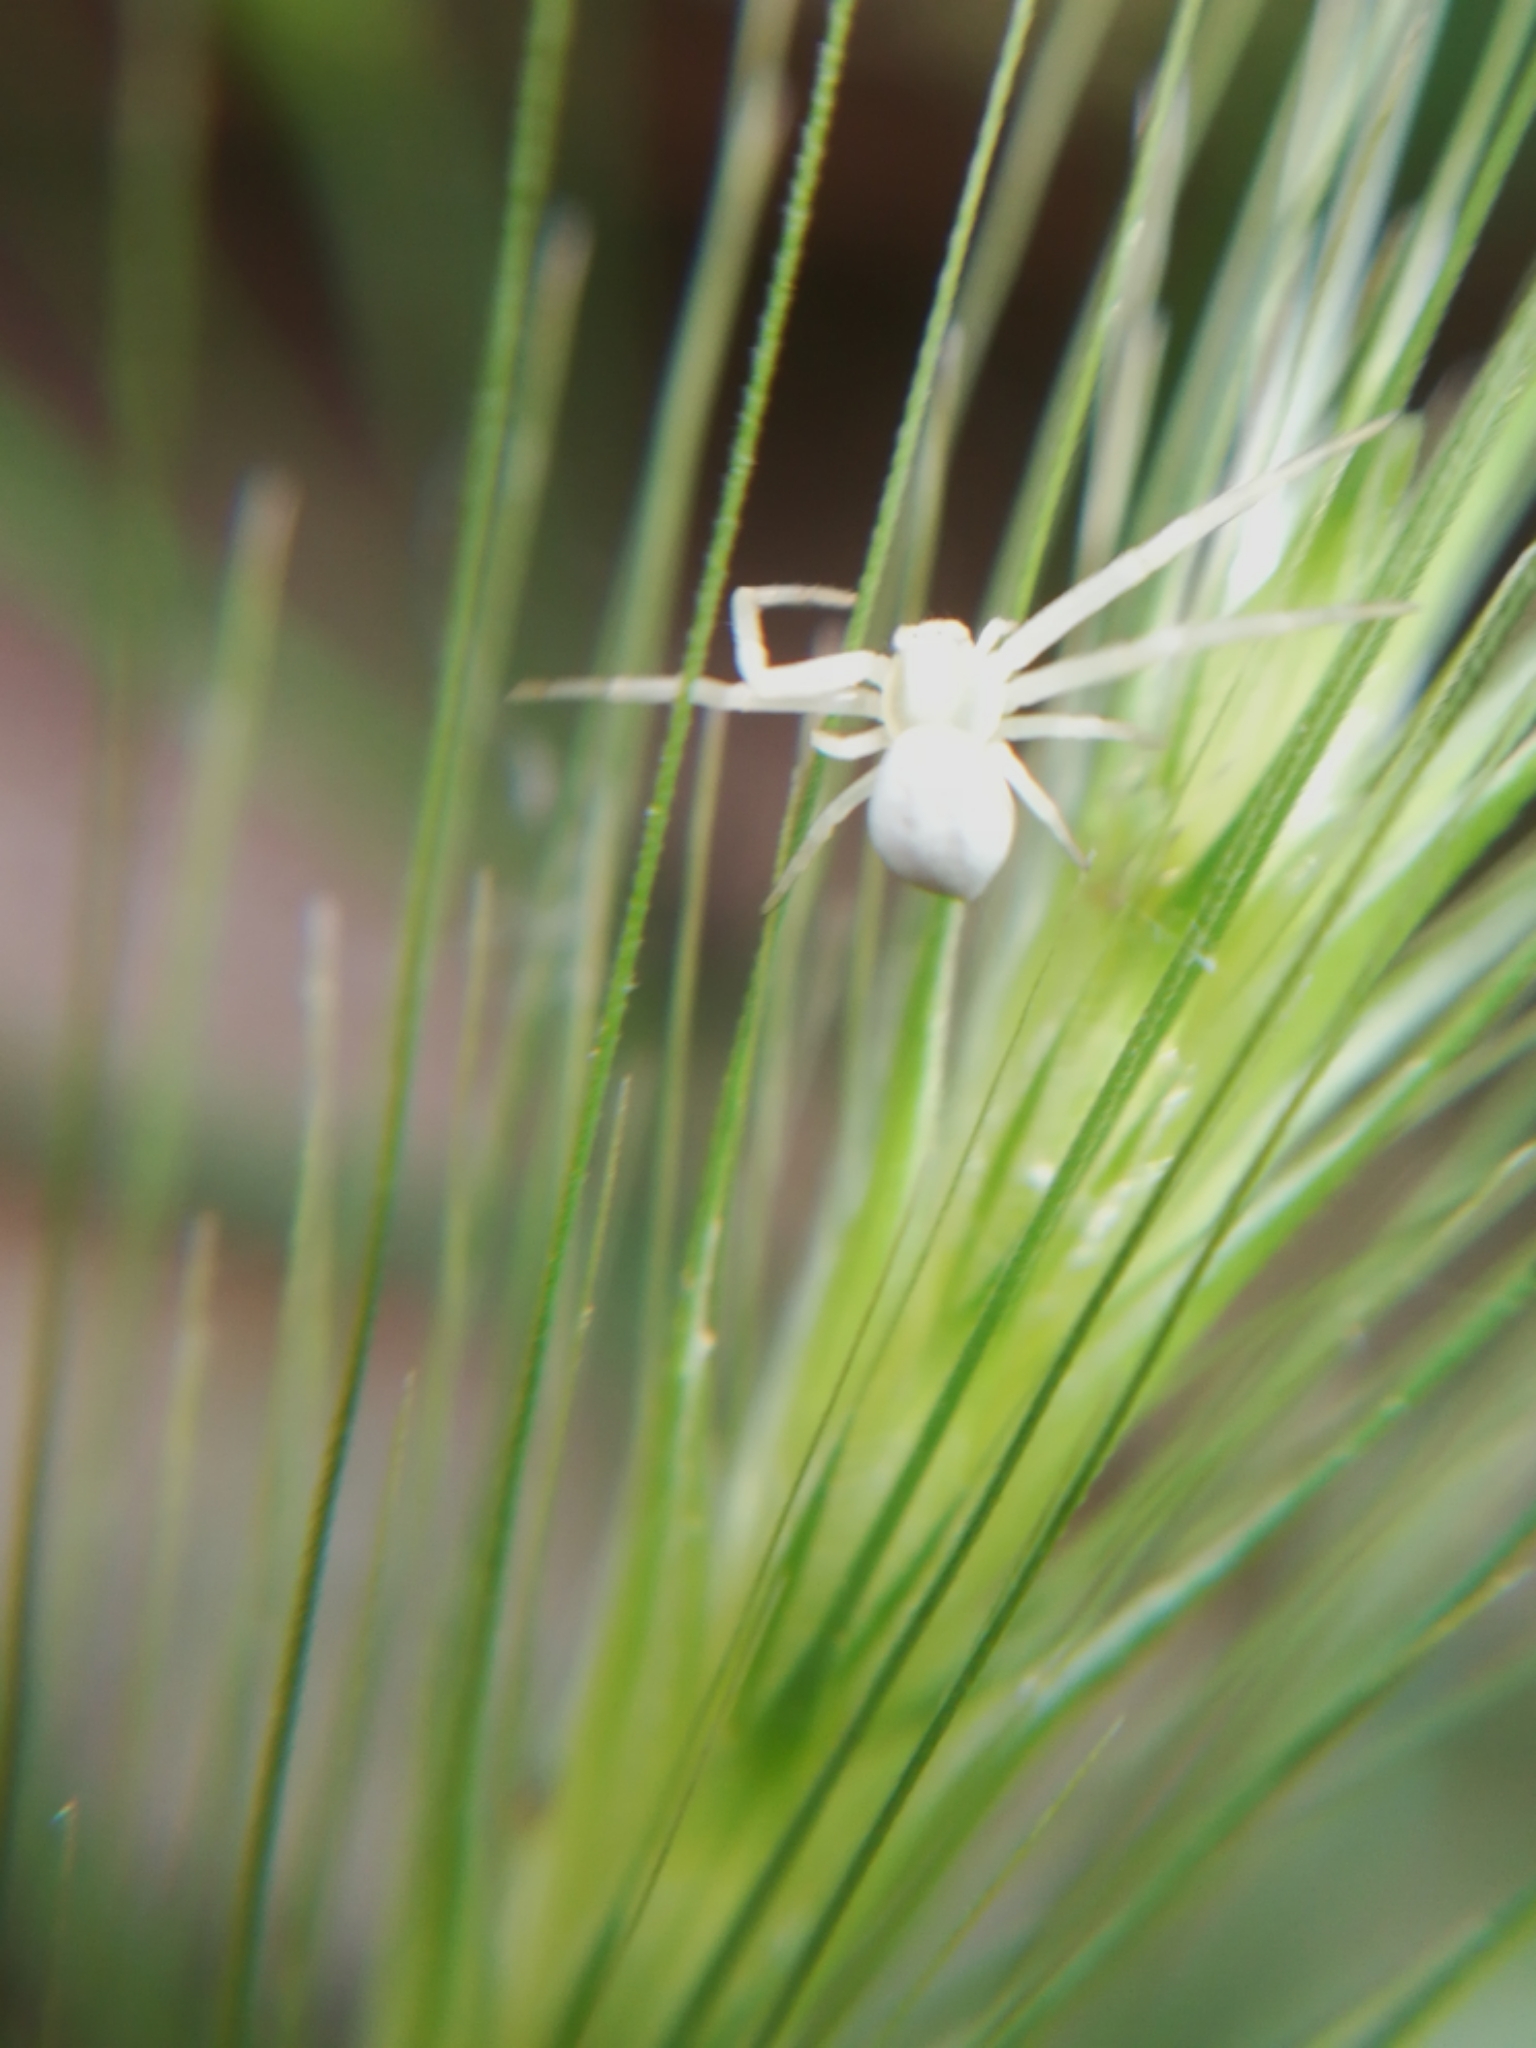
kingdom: Animalia
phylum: Arthropoda
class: Arachnida
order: Araneae
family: Thomisidae
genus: Misumena
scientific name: Misumena vatia
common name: Goldenrod crab spider
